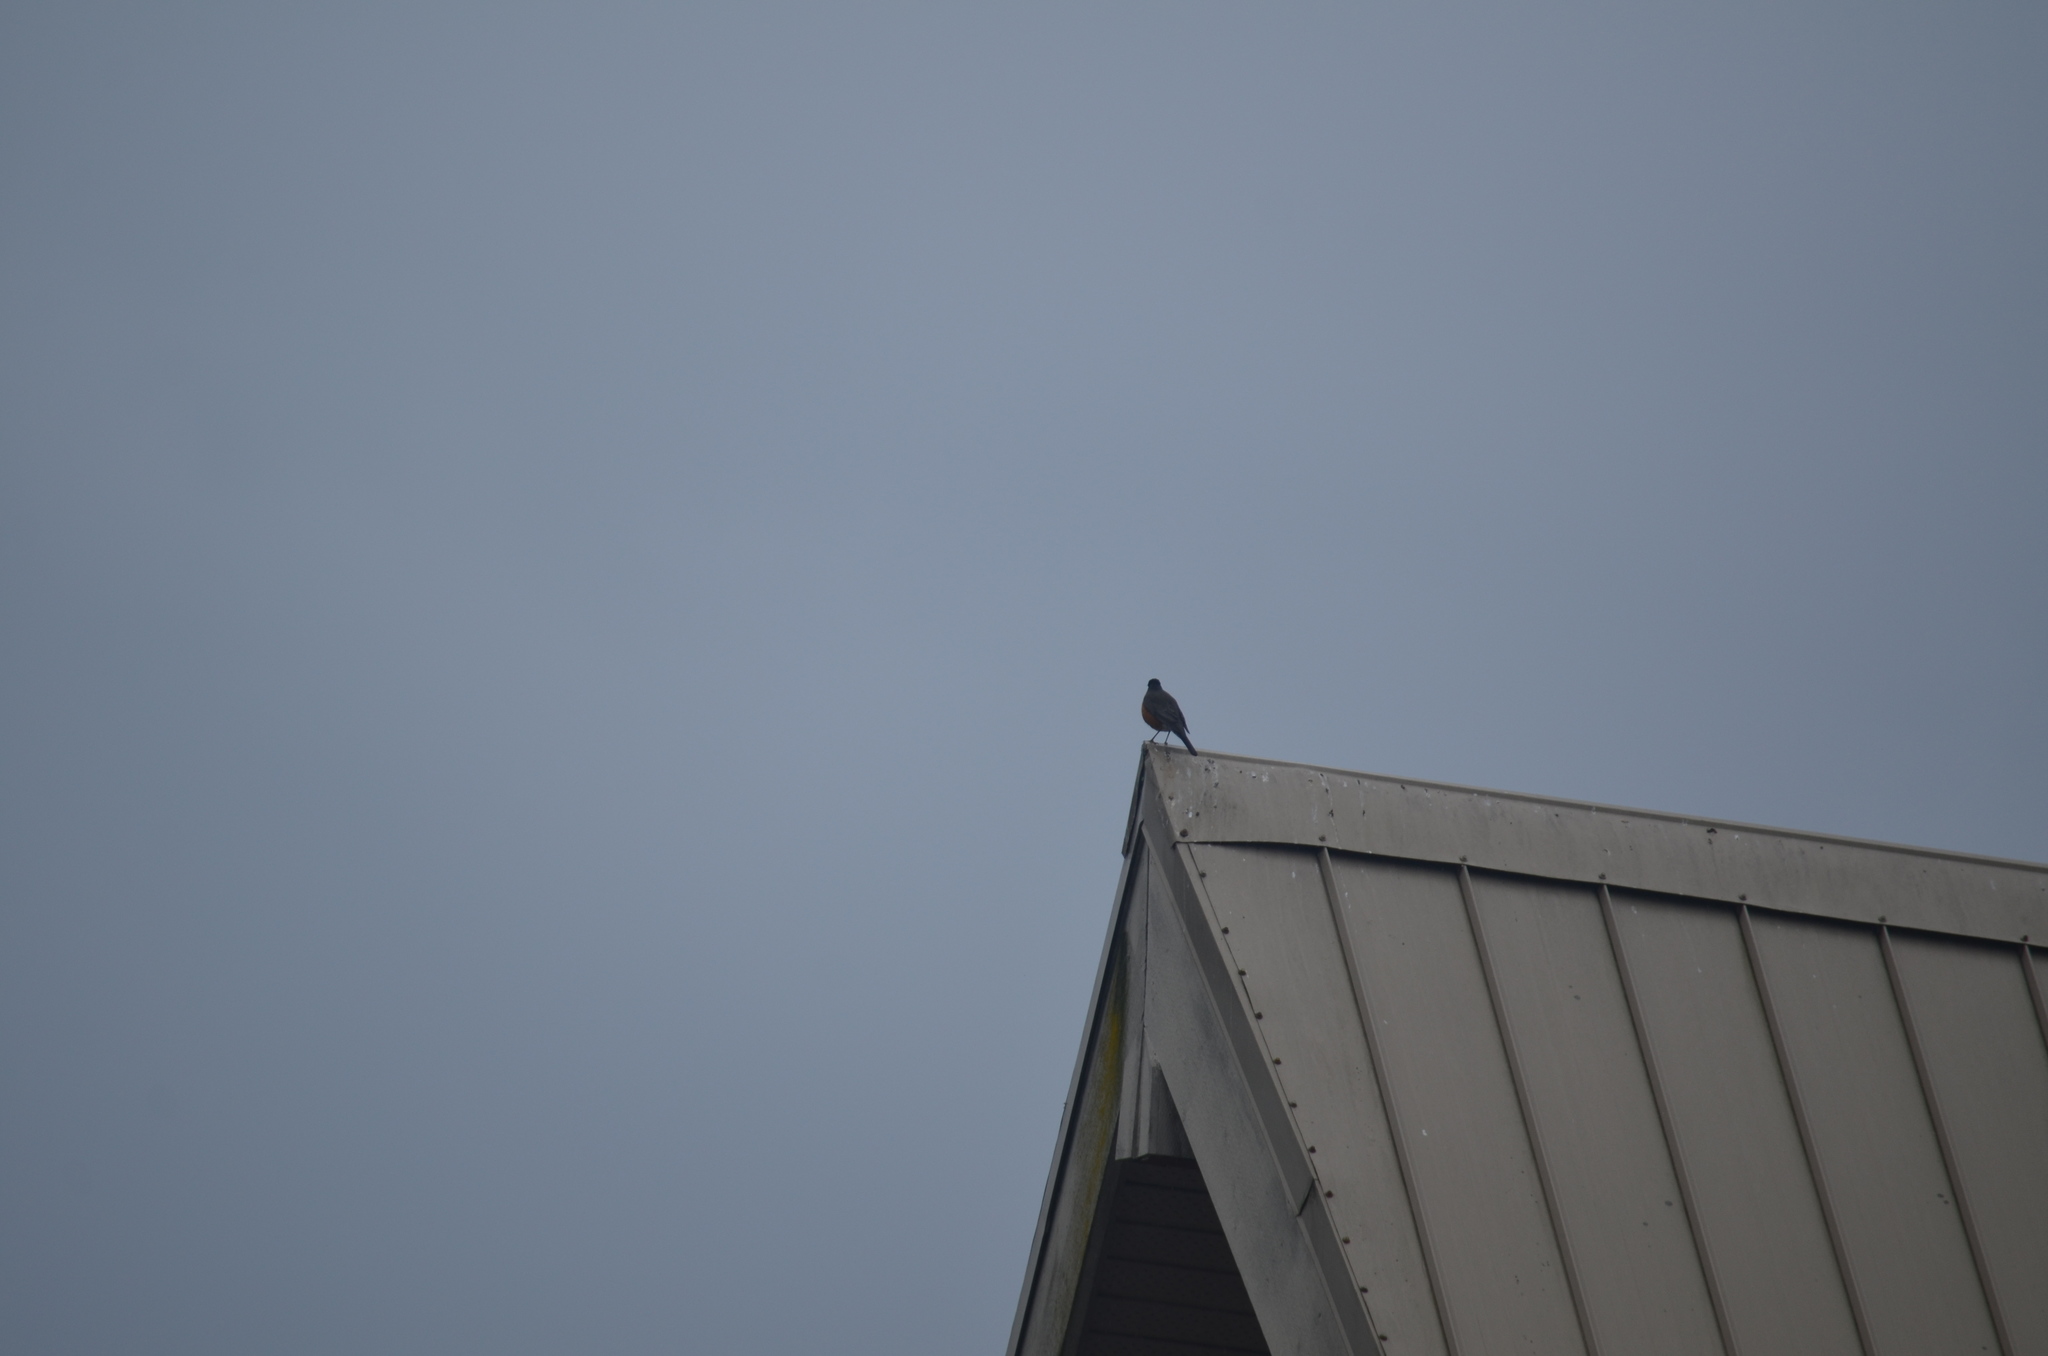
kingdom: Animalia
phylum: Chordata
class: Aves
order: Passeriformes
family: Turdidae
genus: Turdus
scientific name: Turdus migratorius
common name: American robin
